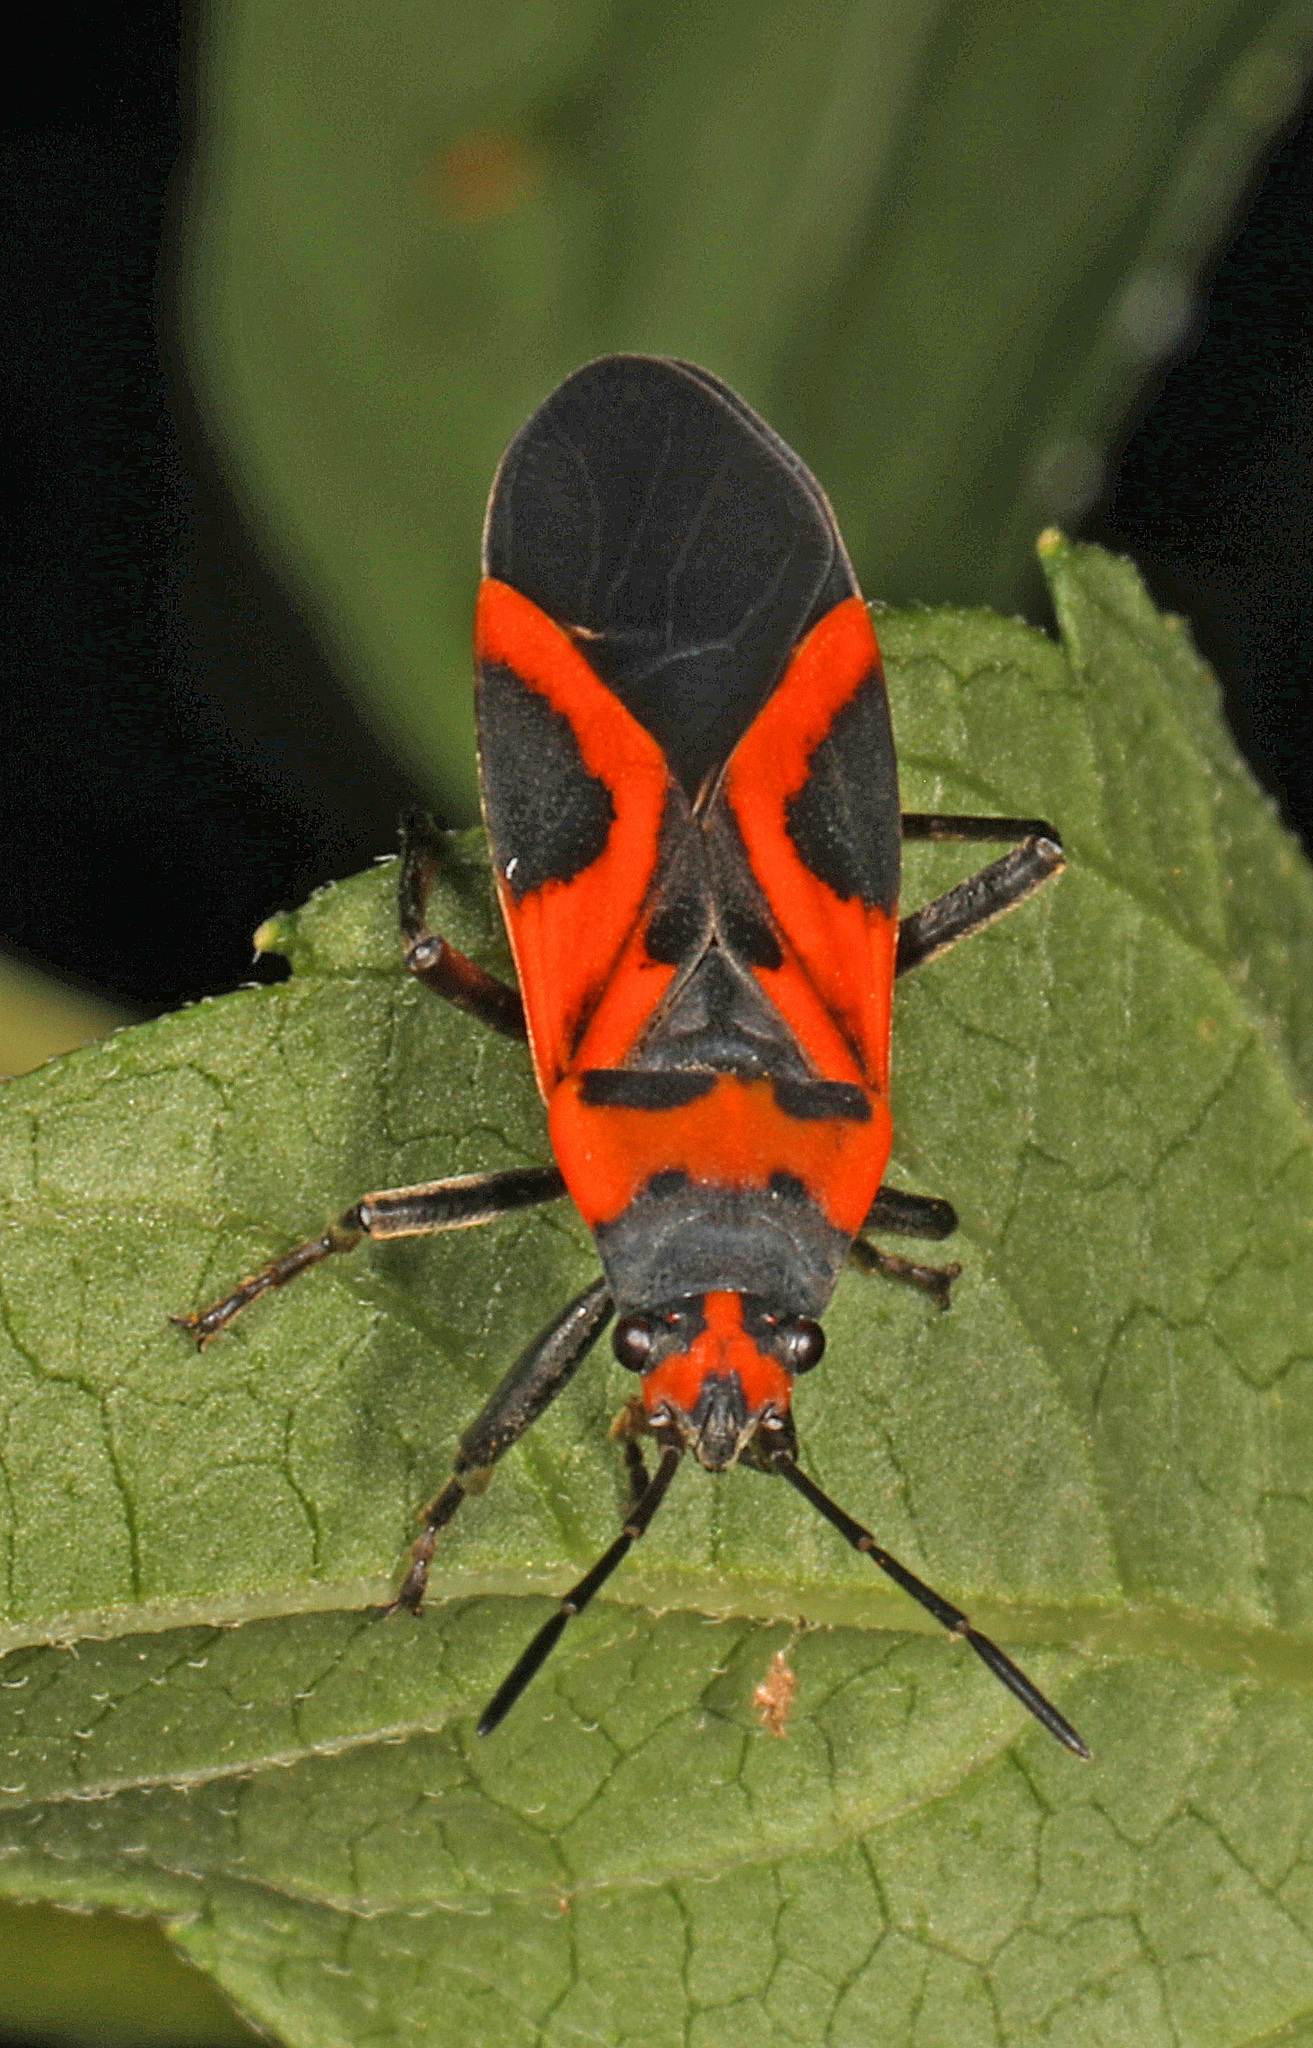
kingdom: Animalia
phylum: Arthropoda
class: Insecta
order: Hemiptera
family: Lygaeidae
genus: Lygaeus
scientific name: Lygaeus turcicus
